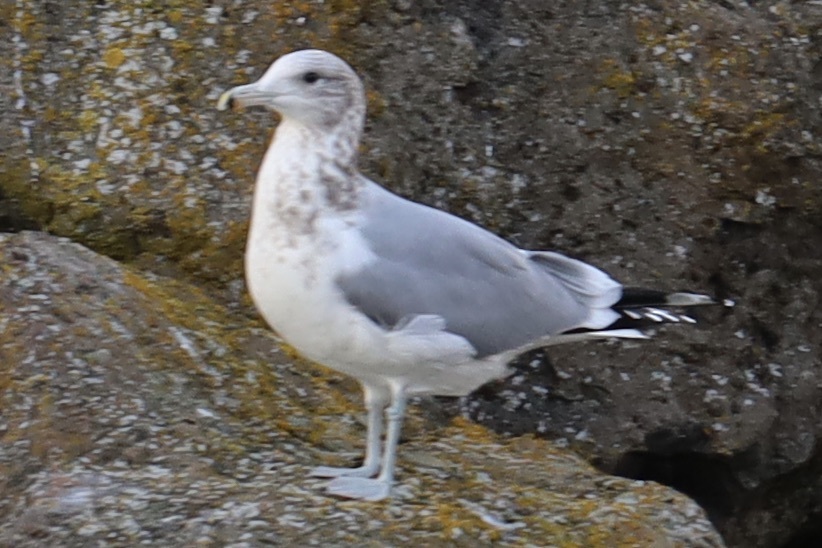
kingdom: Animalia
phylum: Chordata
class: Aves
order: Charadriiformes
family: Laridae
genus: Larus
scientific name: Larus californicus
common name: California gull
